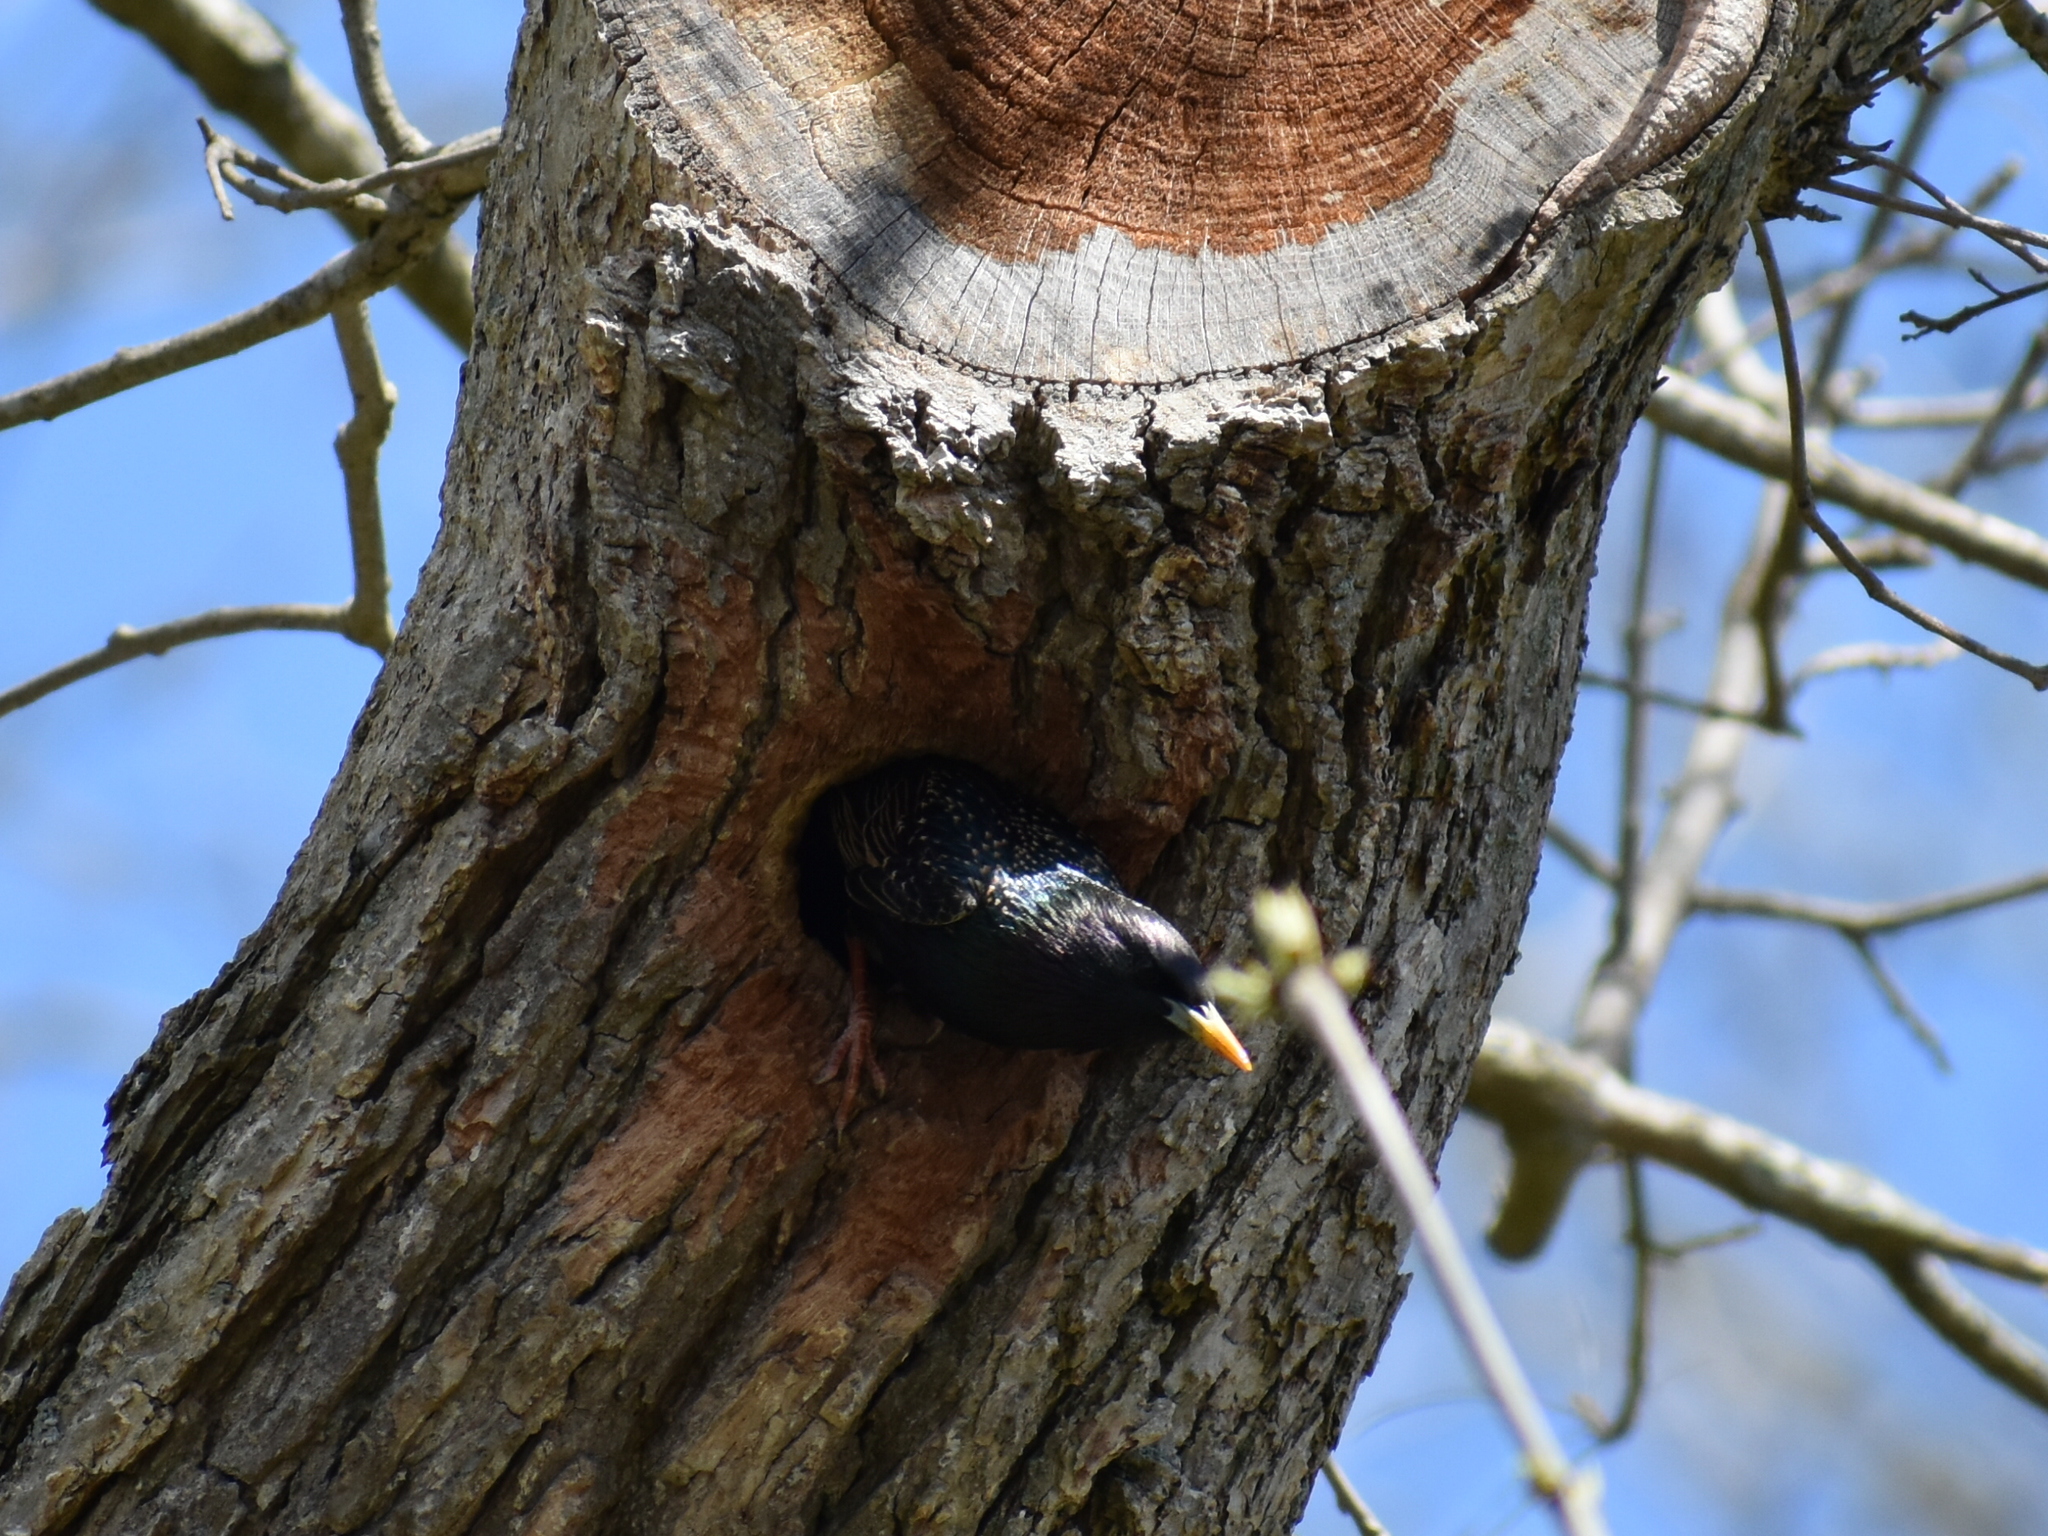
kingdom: Animalia
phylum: Chordata
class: Aves
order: Passeriformes
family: Sturnidae
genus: Sturnus
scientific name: Sturnus vulgaris
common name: Common starling
